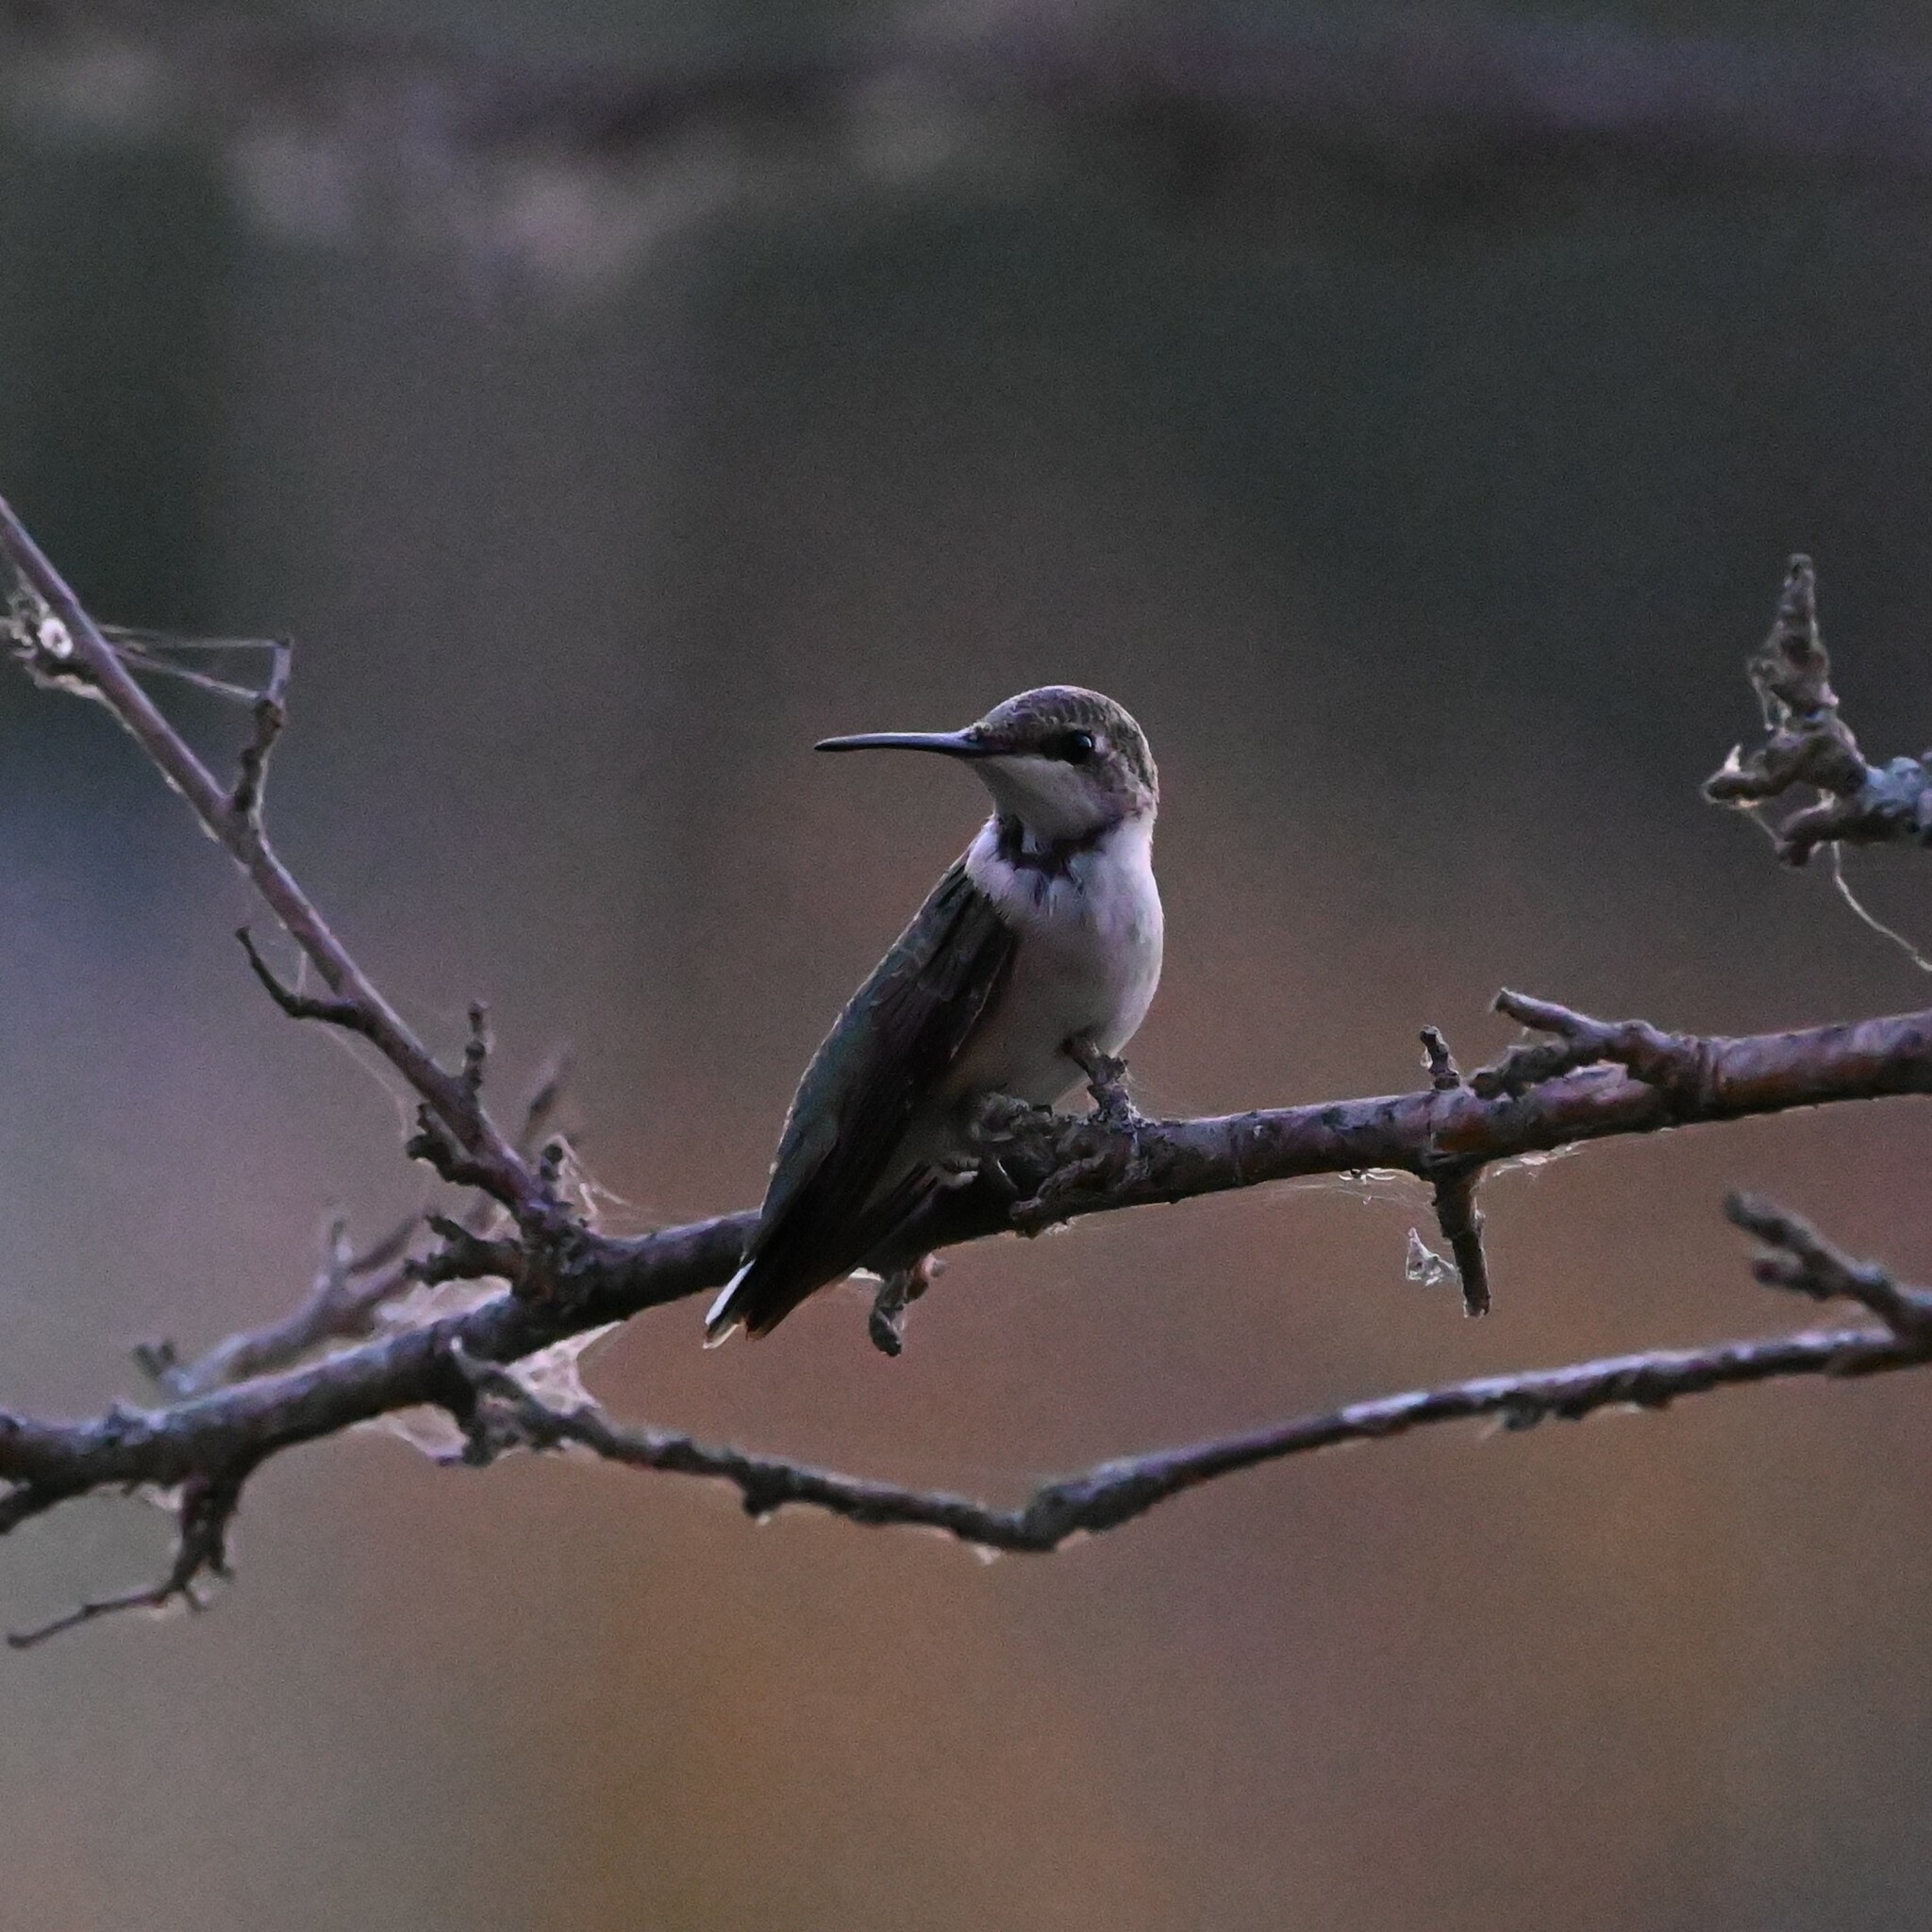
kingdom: Animalia
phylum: Chordata
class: Aves
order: Apodiformes
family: Trochilidae
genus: Archilochus
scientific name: Archilochus colubris
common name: Ruby-throated hummingbird
